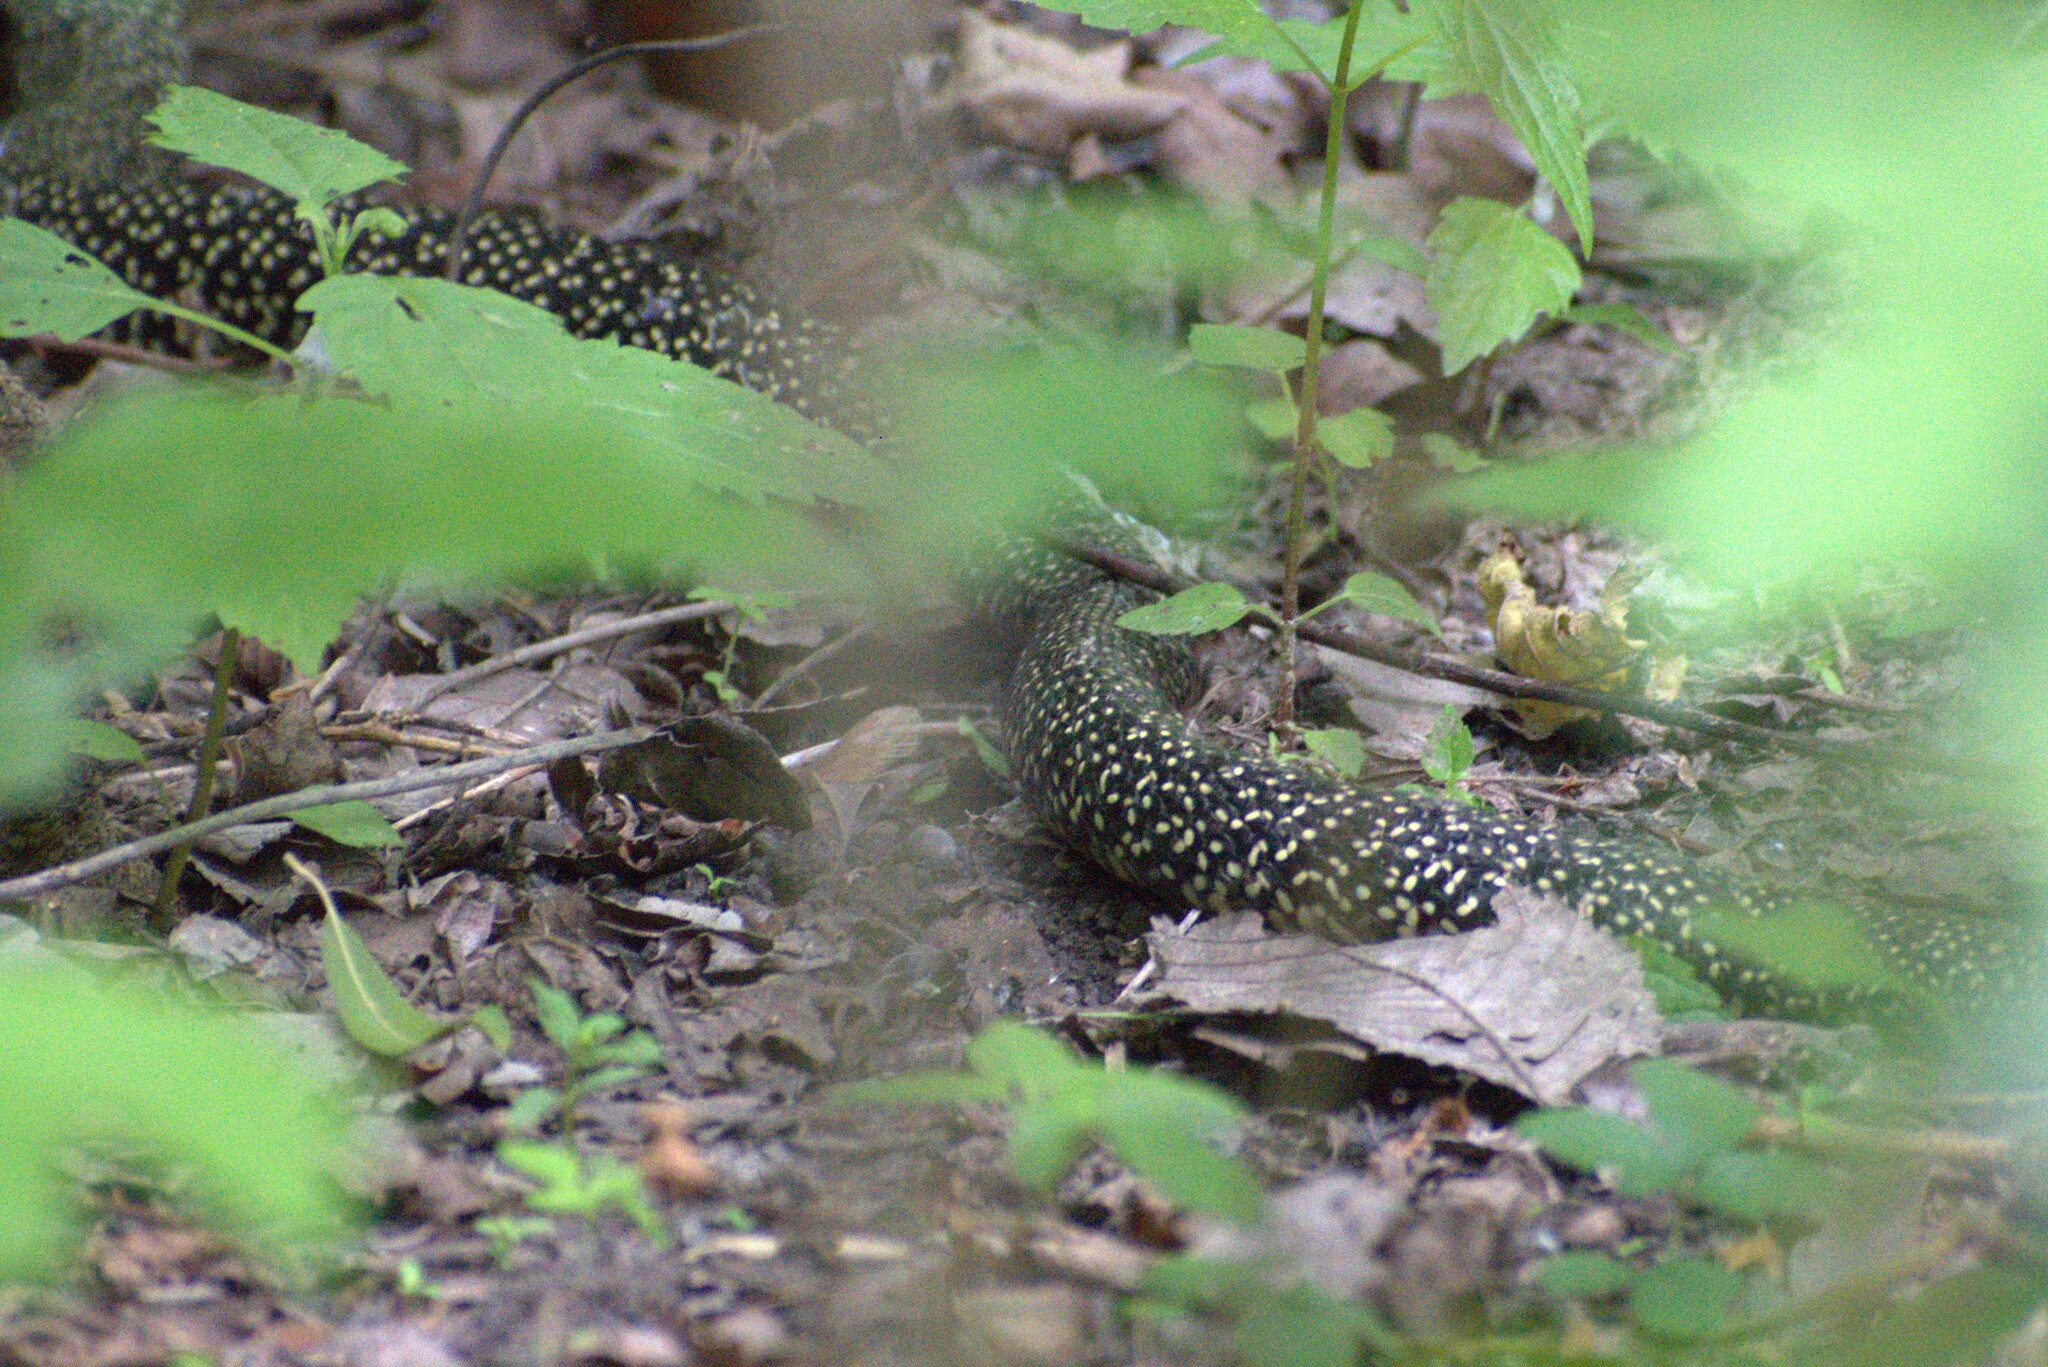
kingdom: Animalia
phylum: Chordata
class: Squamata
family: Colubridae
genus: Lampropeltis
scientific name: Lampropeltis holbrooki
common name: Speckled kingsnake
